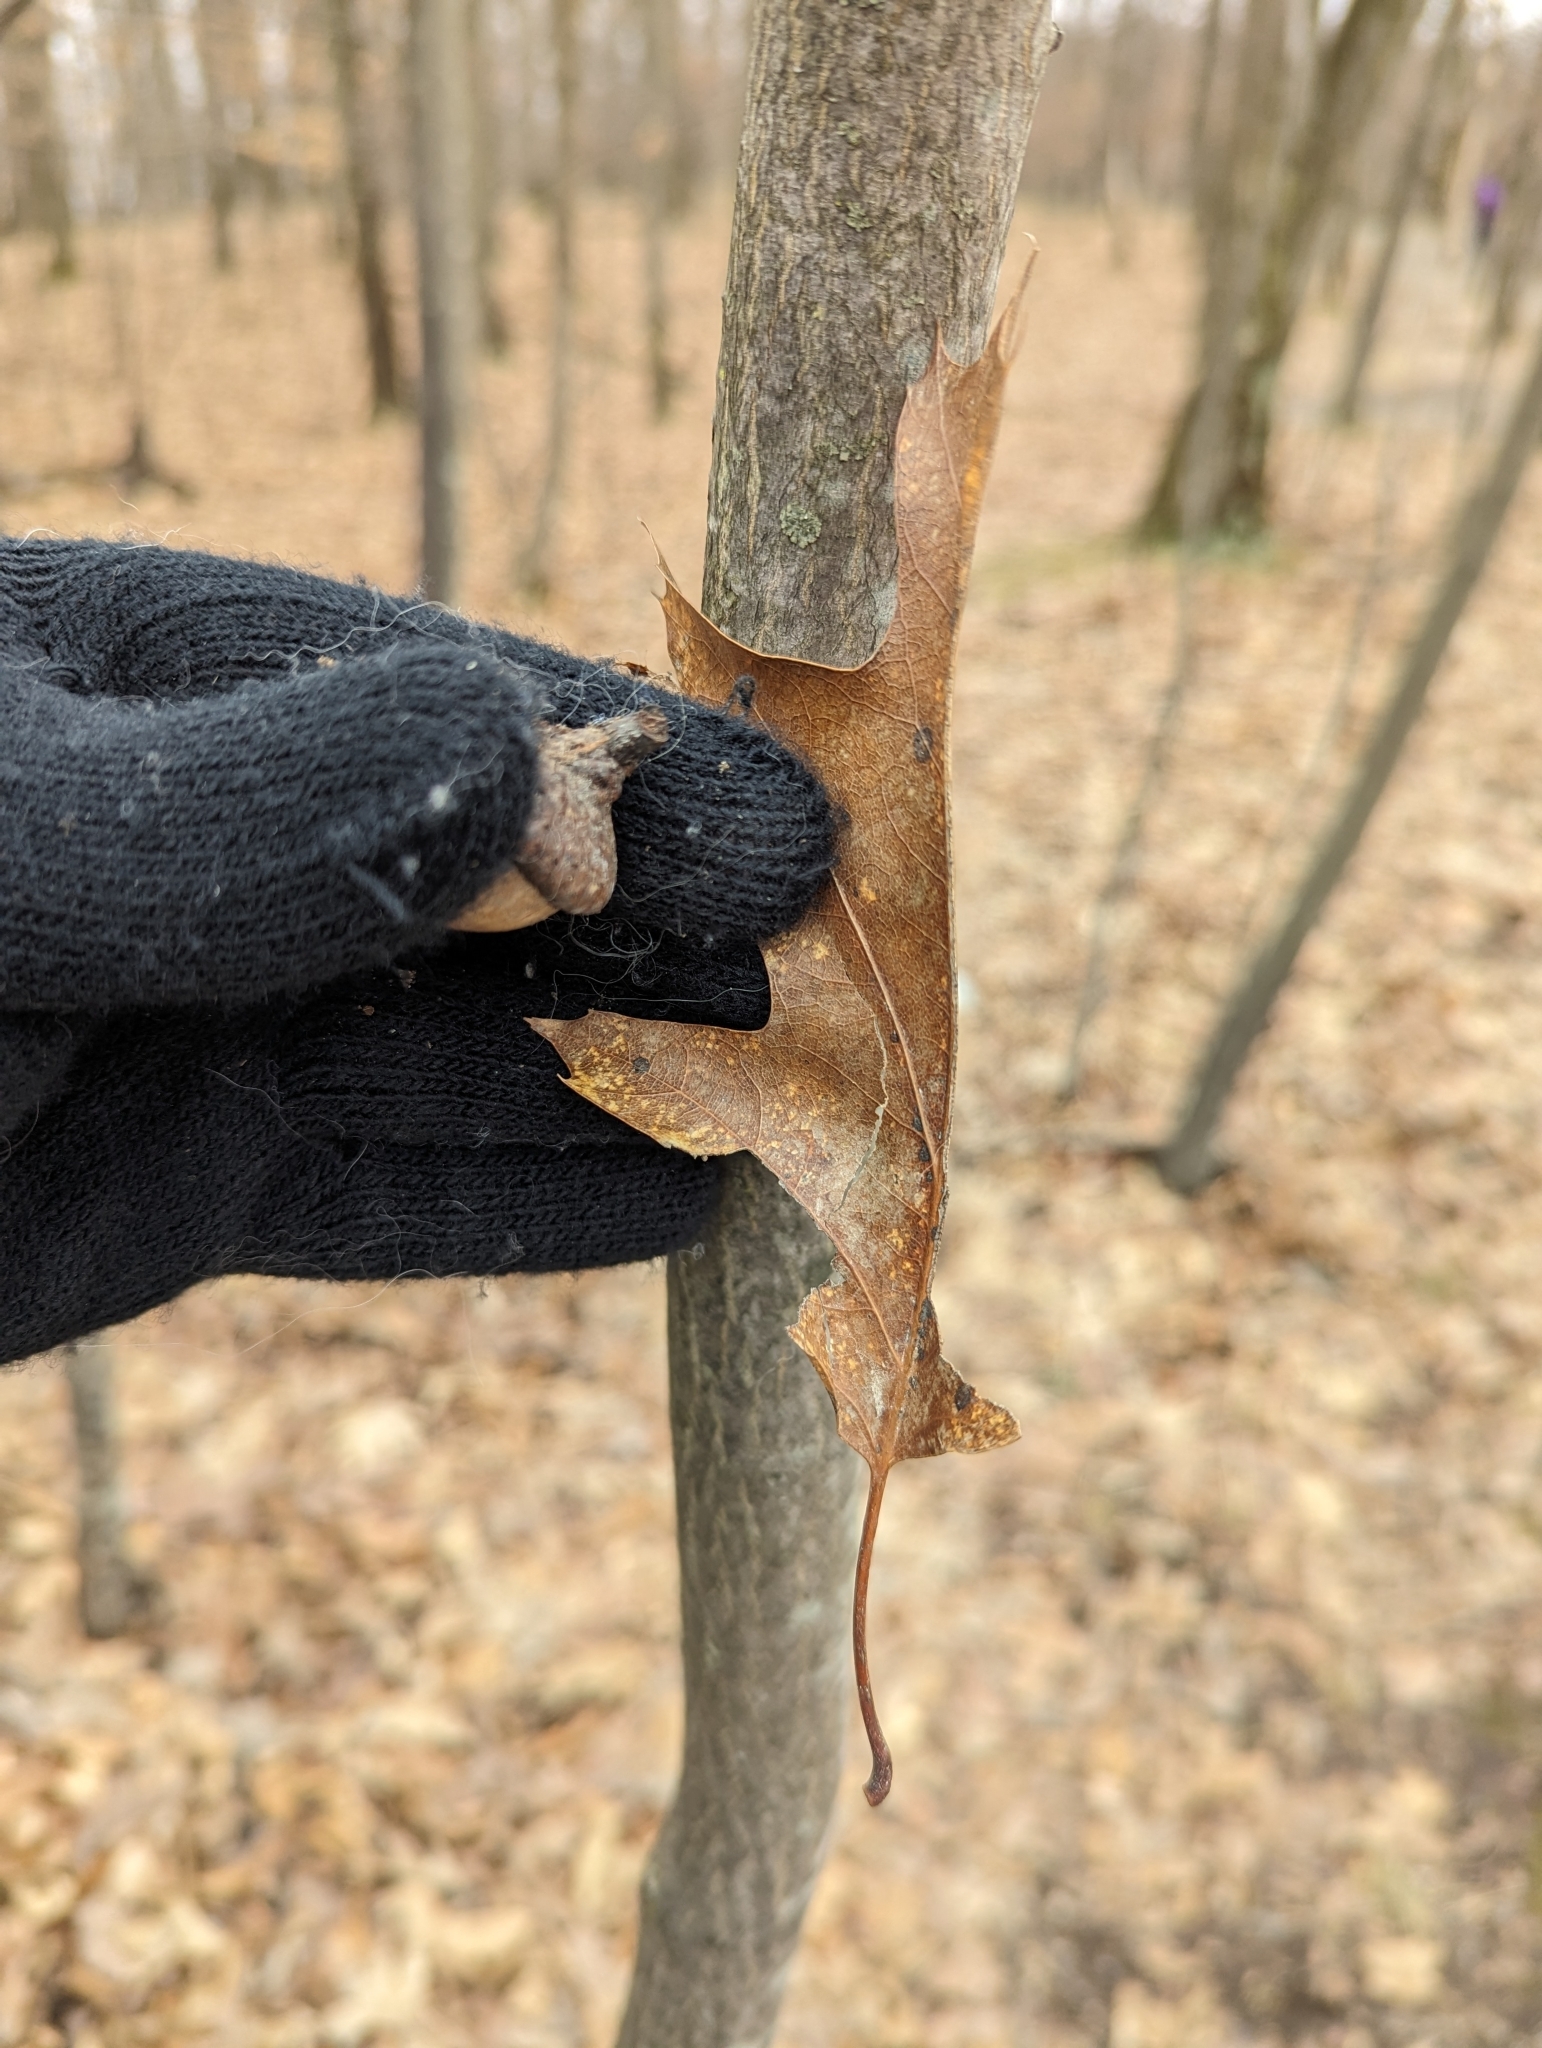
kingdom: Plantae
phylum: Tracheophyta
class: Magnoliopsida
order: Fagales
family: Fagaceae
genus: Quercus
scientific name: Quercus rubra
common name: Red oak
